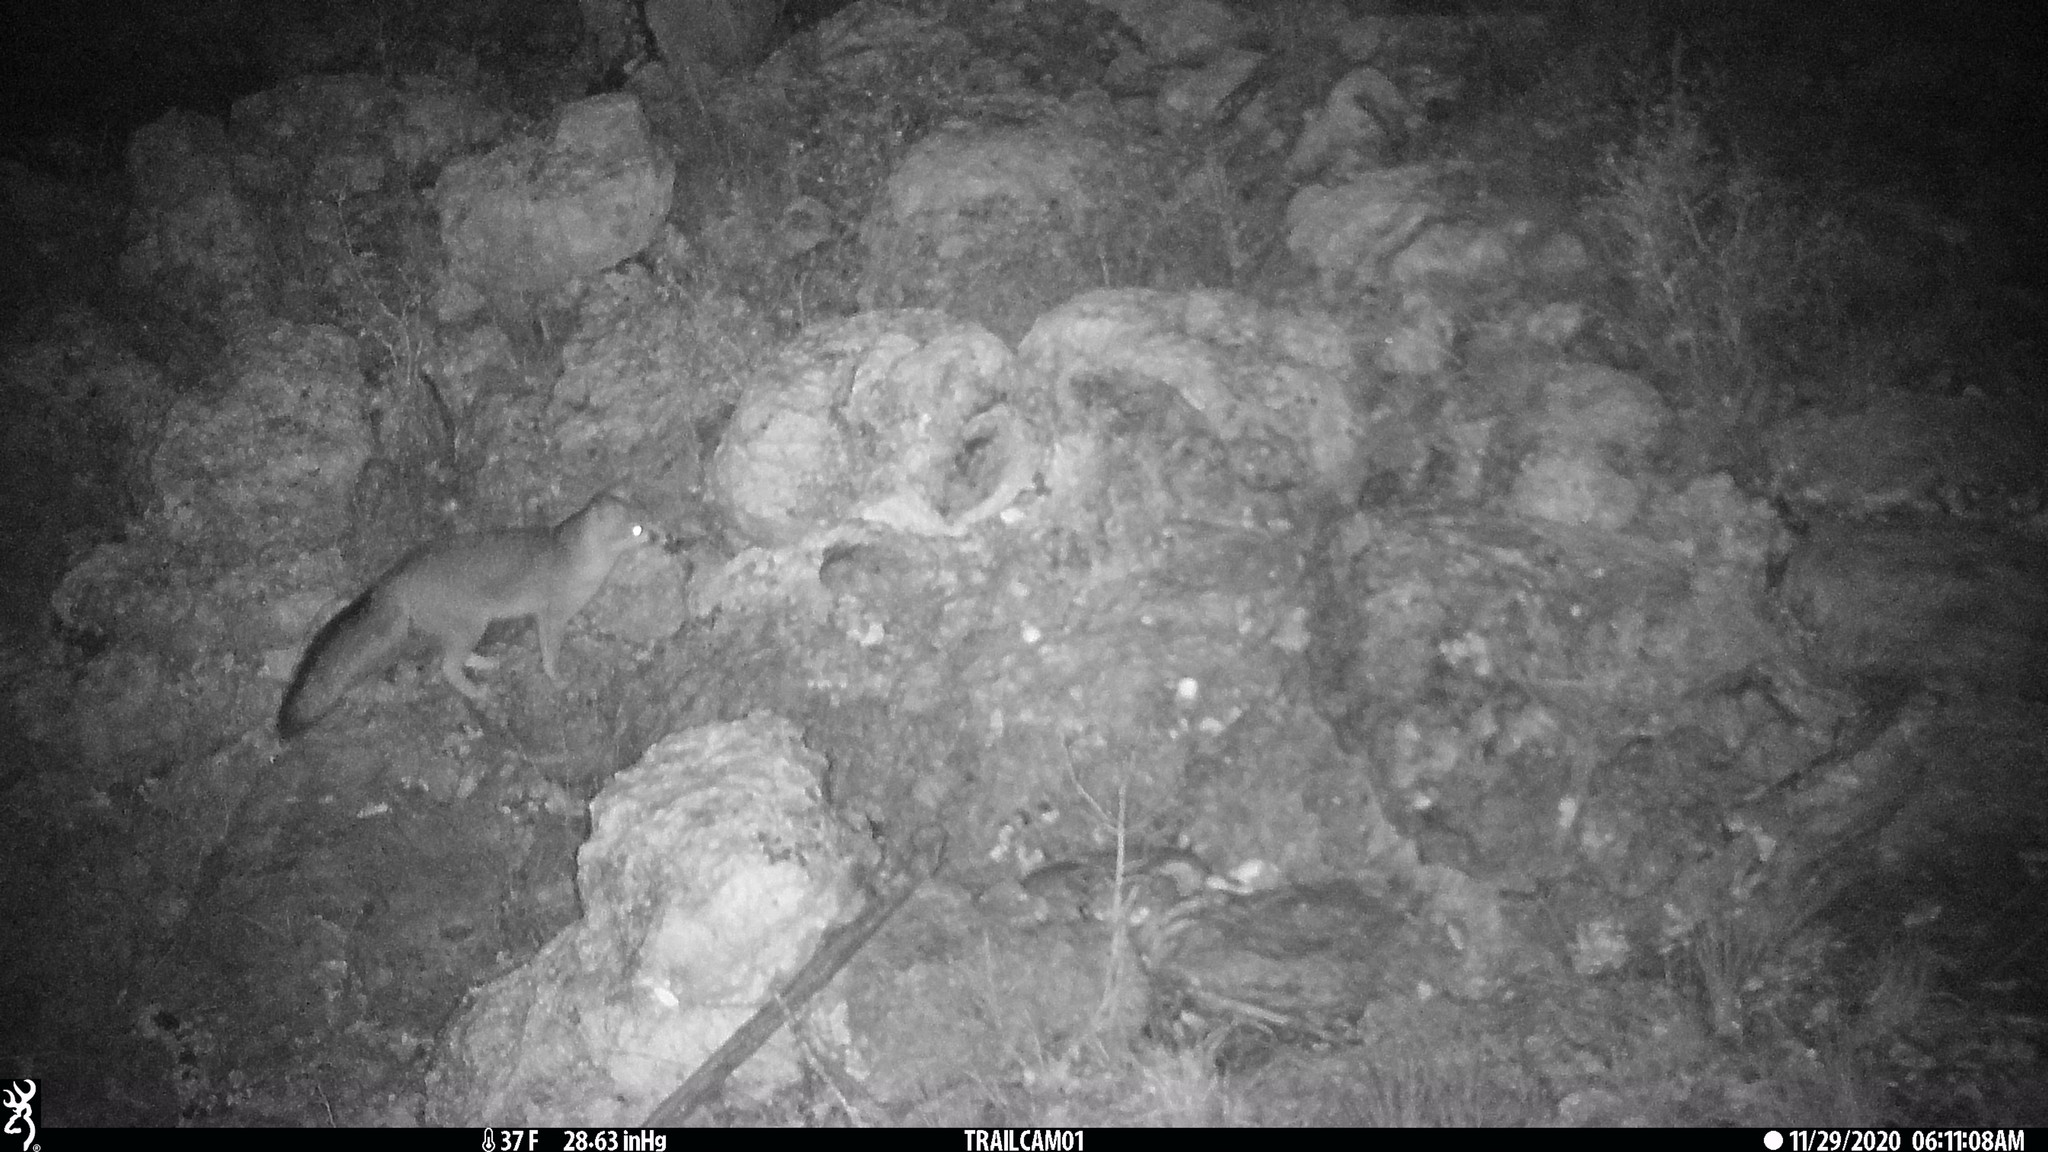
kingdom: Animalia
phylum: Chordata
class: Mammalia
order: Carnivora
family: Canidae
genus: Urocyon
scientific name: Urocyon cinereoargenteus
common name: Gray fox
